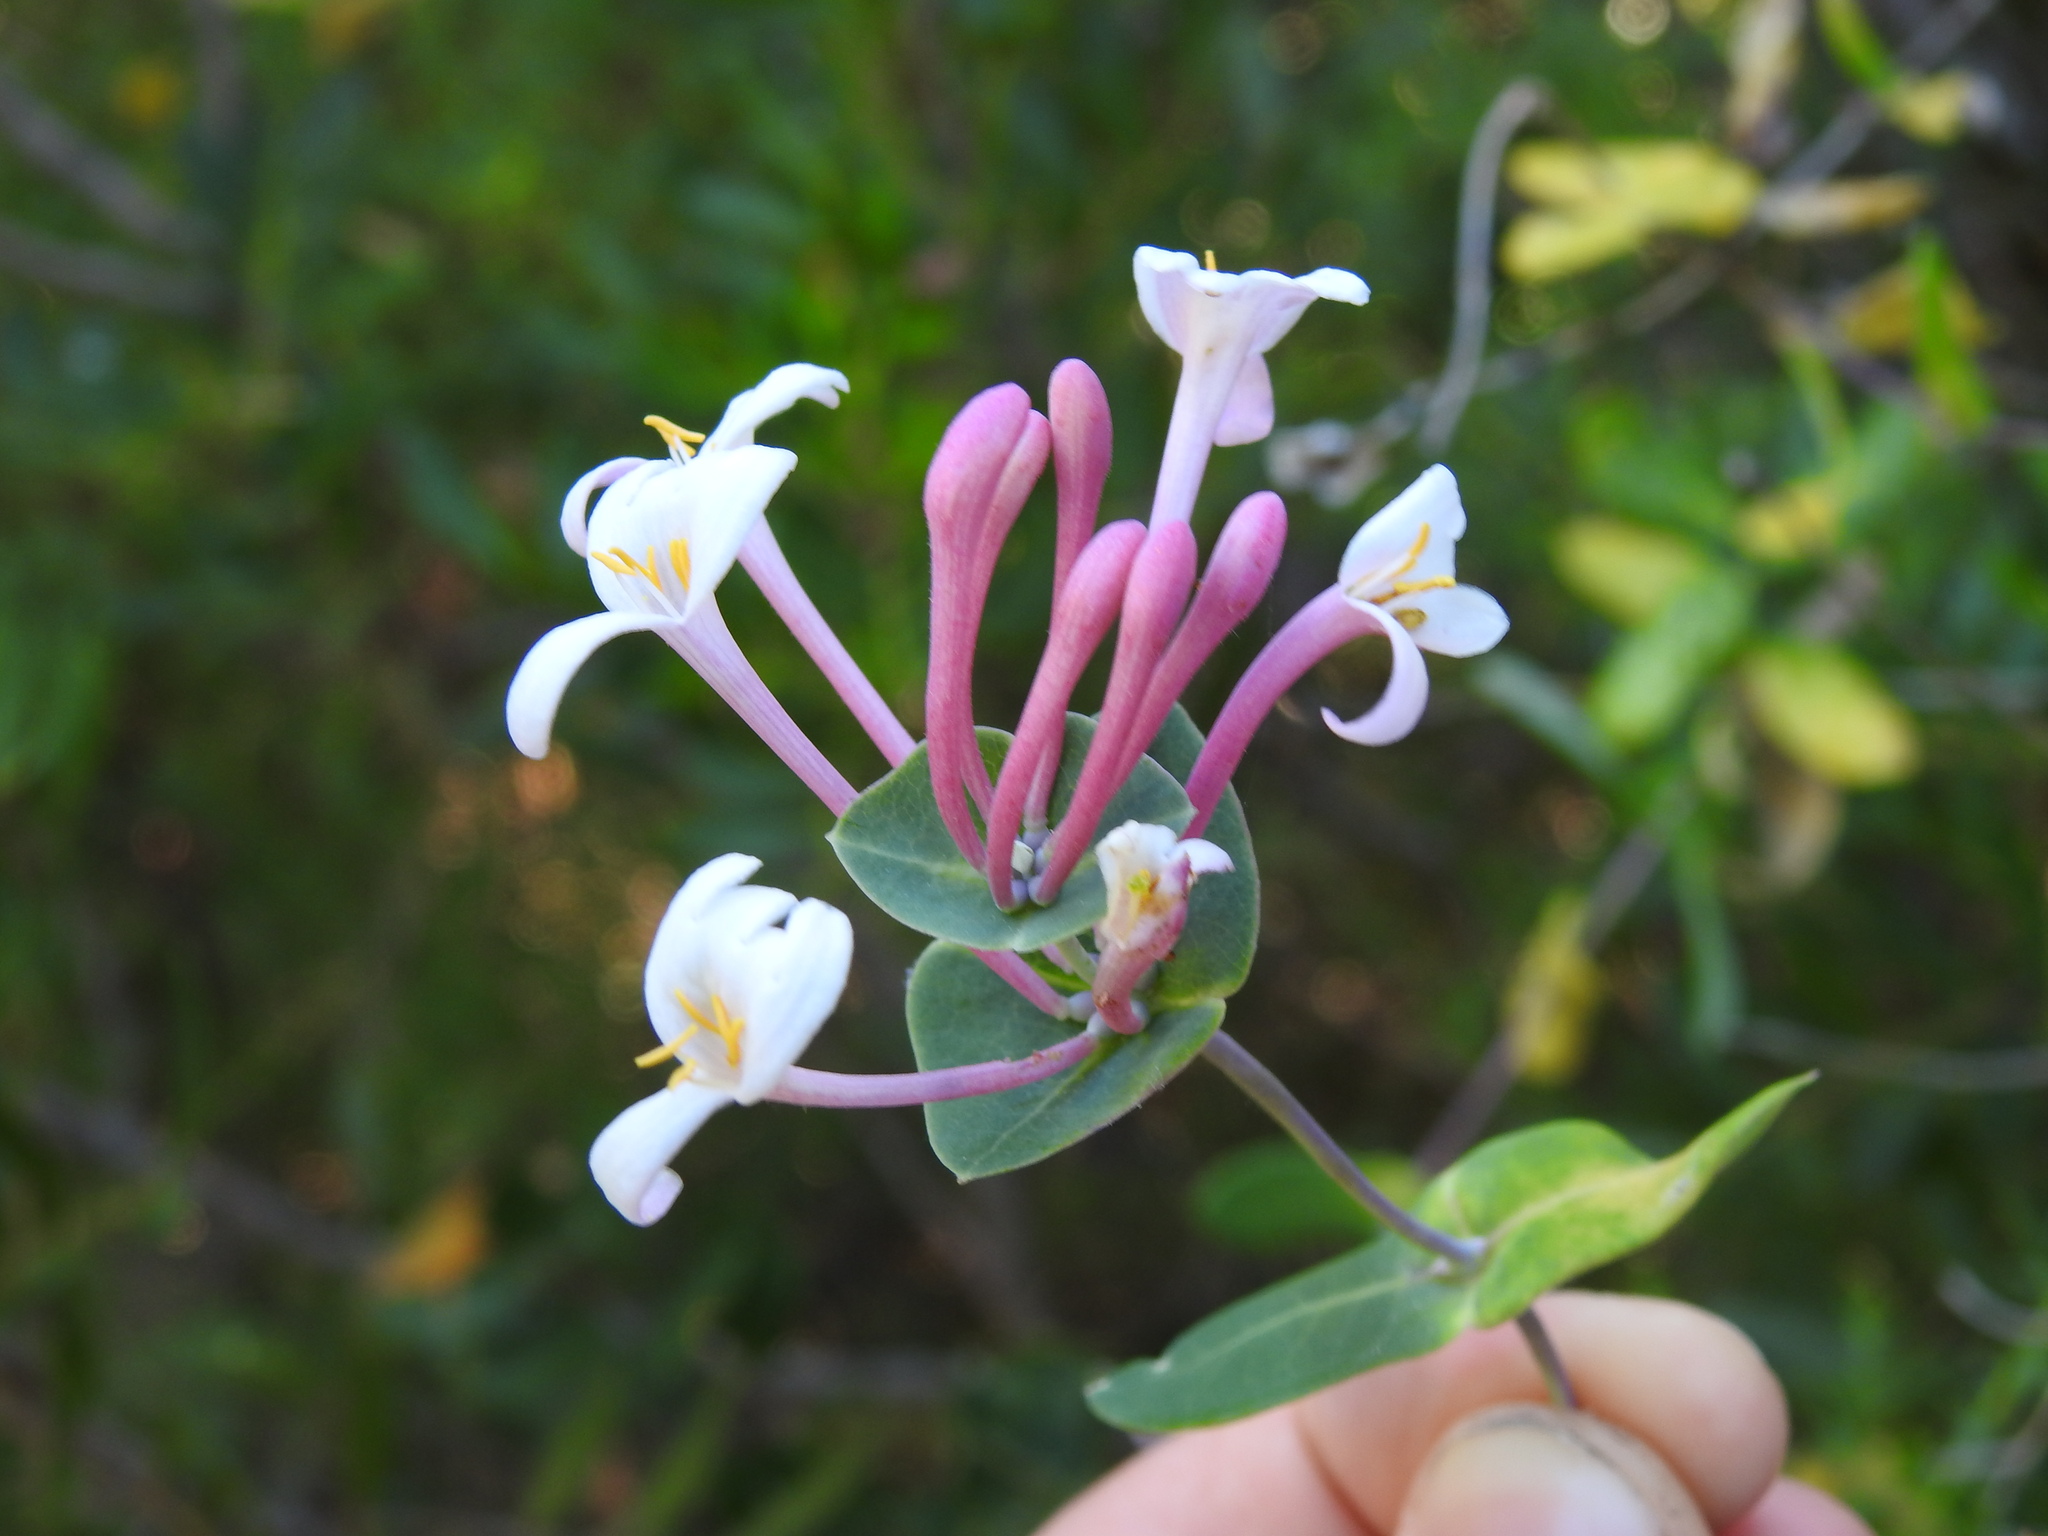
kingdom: Plantae
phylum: Tracheophyta
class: Magnoliopsida
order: Dipsacales
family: Caprifoliaceae
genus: Lonicera
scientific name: Lonicera implexa
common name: Minorca honeysuckle
